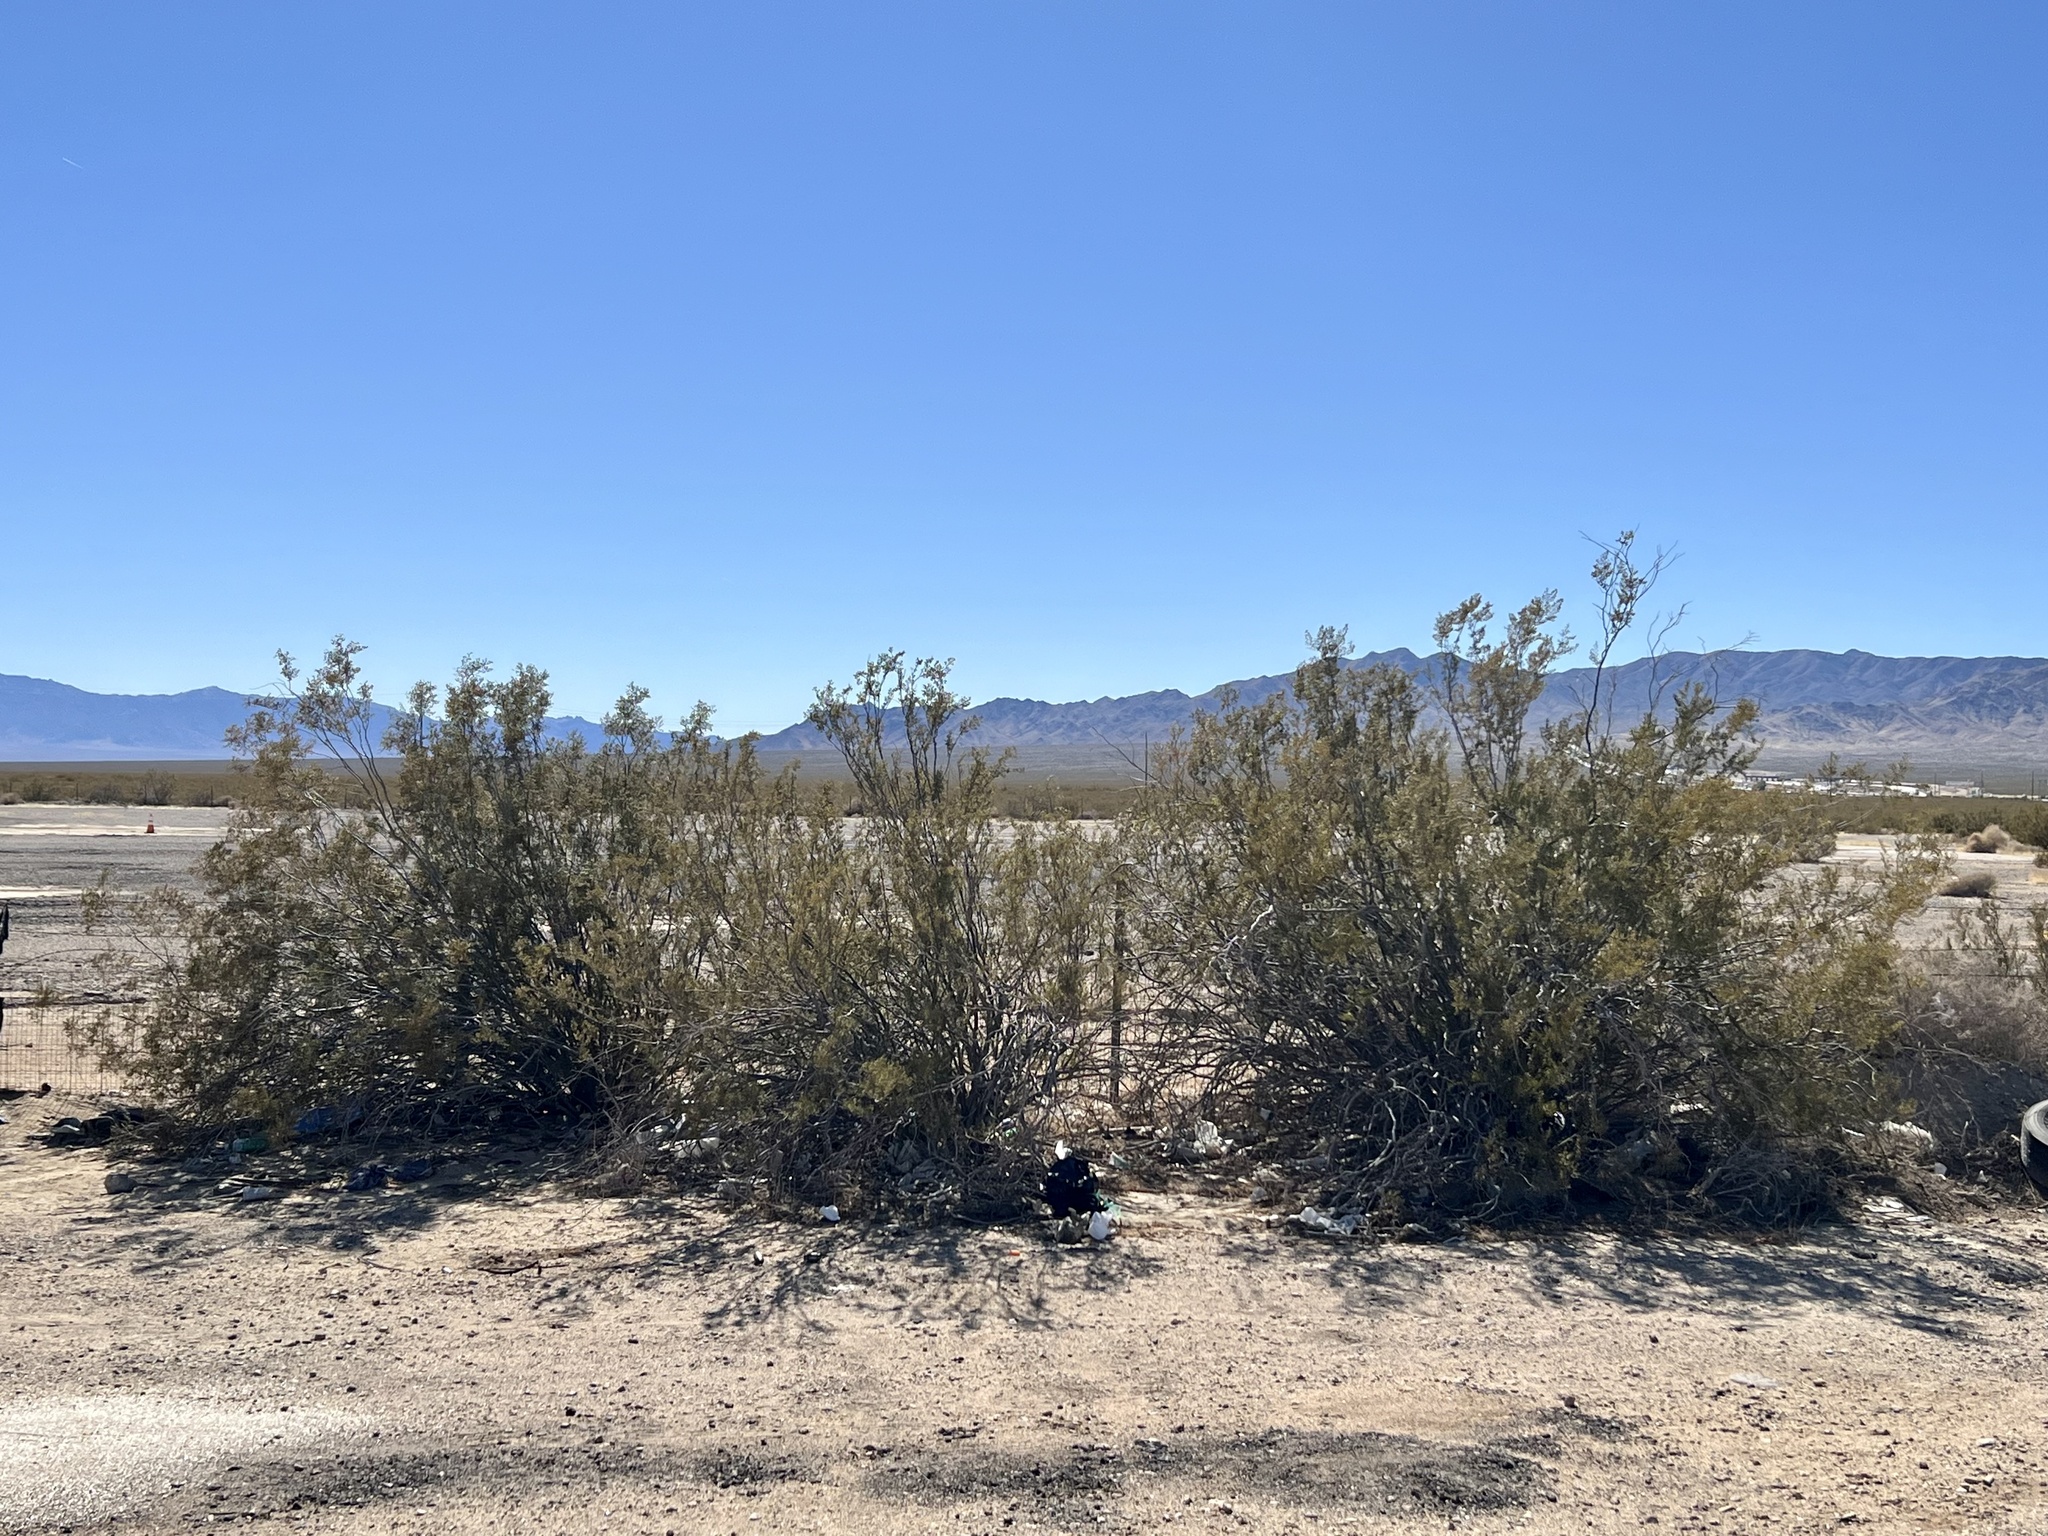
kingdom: Plantae
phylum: Tracheophyta
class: Magnoliopsida
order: Zygophyllales
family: Zygophyllaceae
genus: Larrea
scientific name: Larrea tridentata
